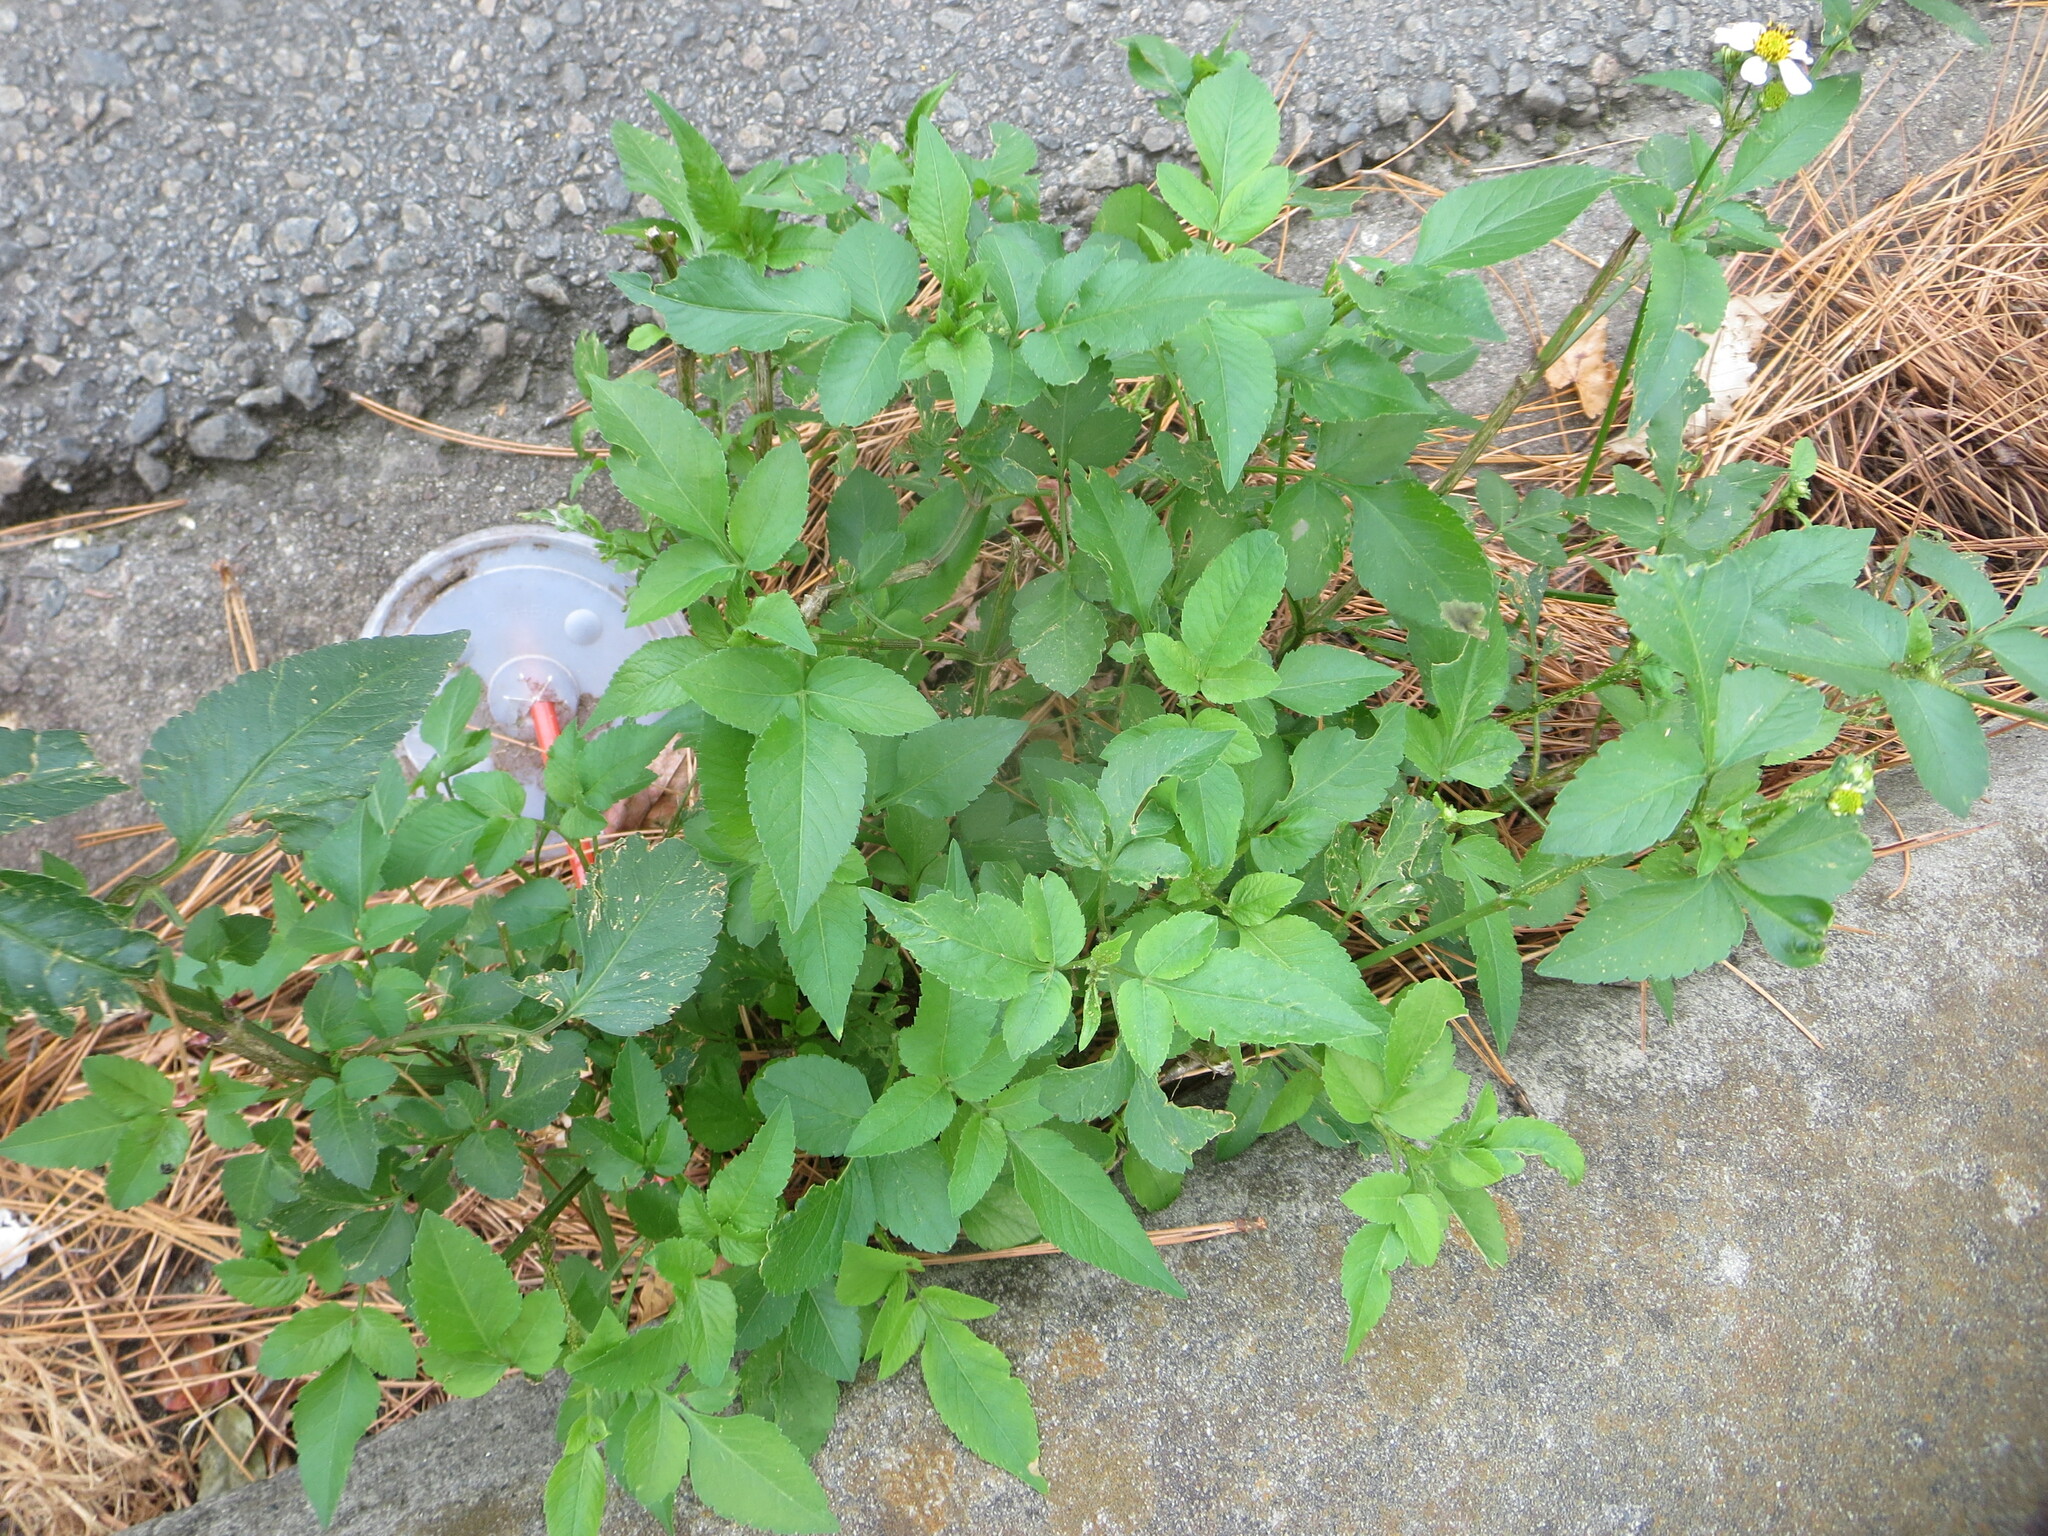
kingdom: Plantae
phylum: Tracheophyta
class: Magnoliopsida
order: Asterales
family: Asteraceae
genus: Bidens
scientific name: Bidens alba
